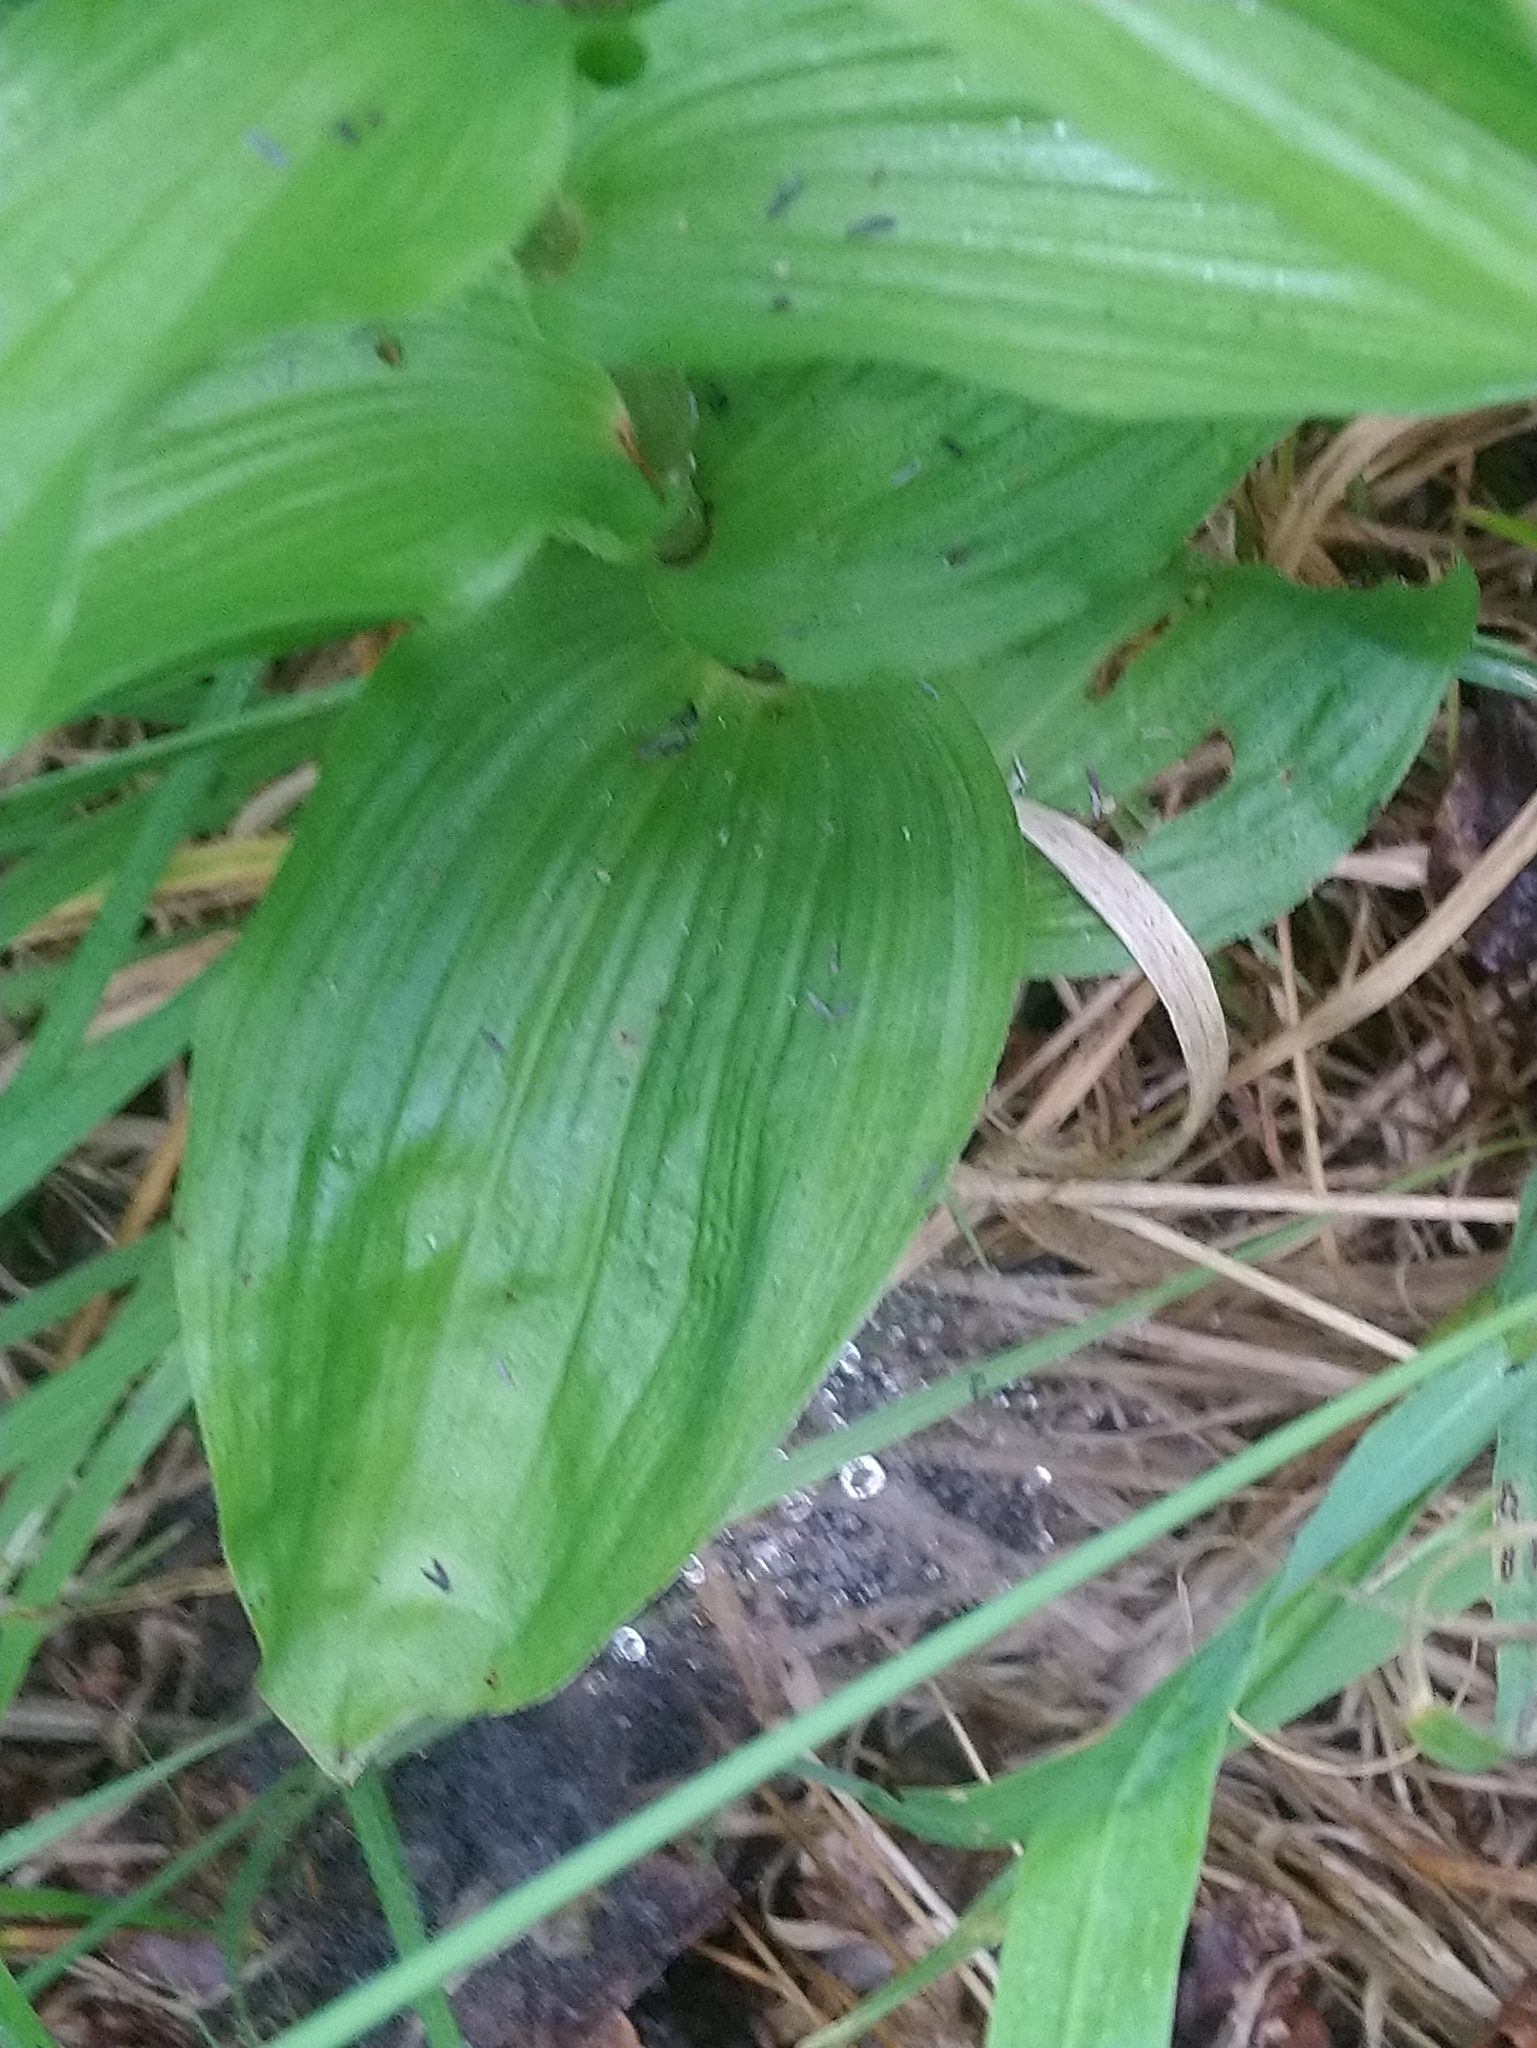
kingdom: Plantae
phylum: Tracheophyta
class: Liliopsida
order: Asparagales
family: Orchidaceae
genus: Epipactis
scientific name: Epipactis helleborine
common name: Broad-leaved helleborine
